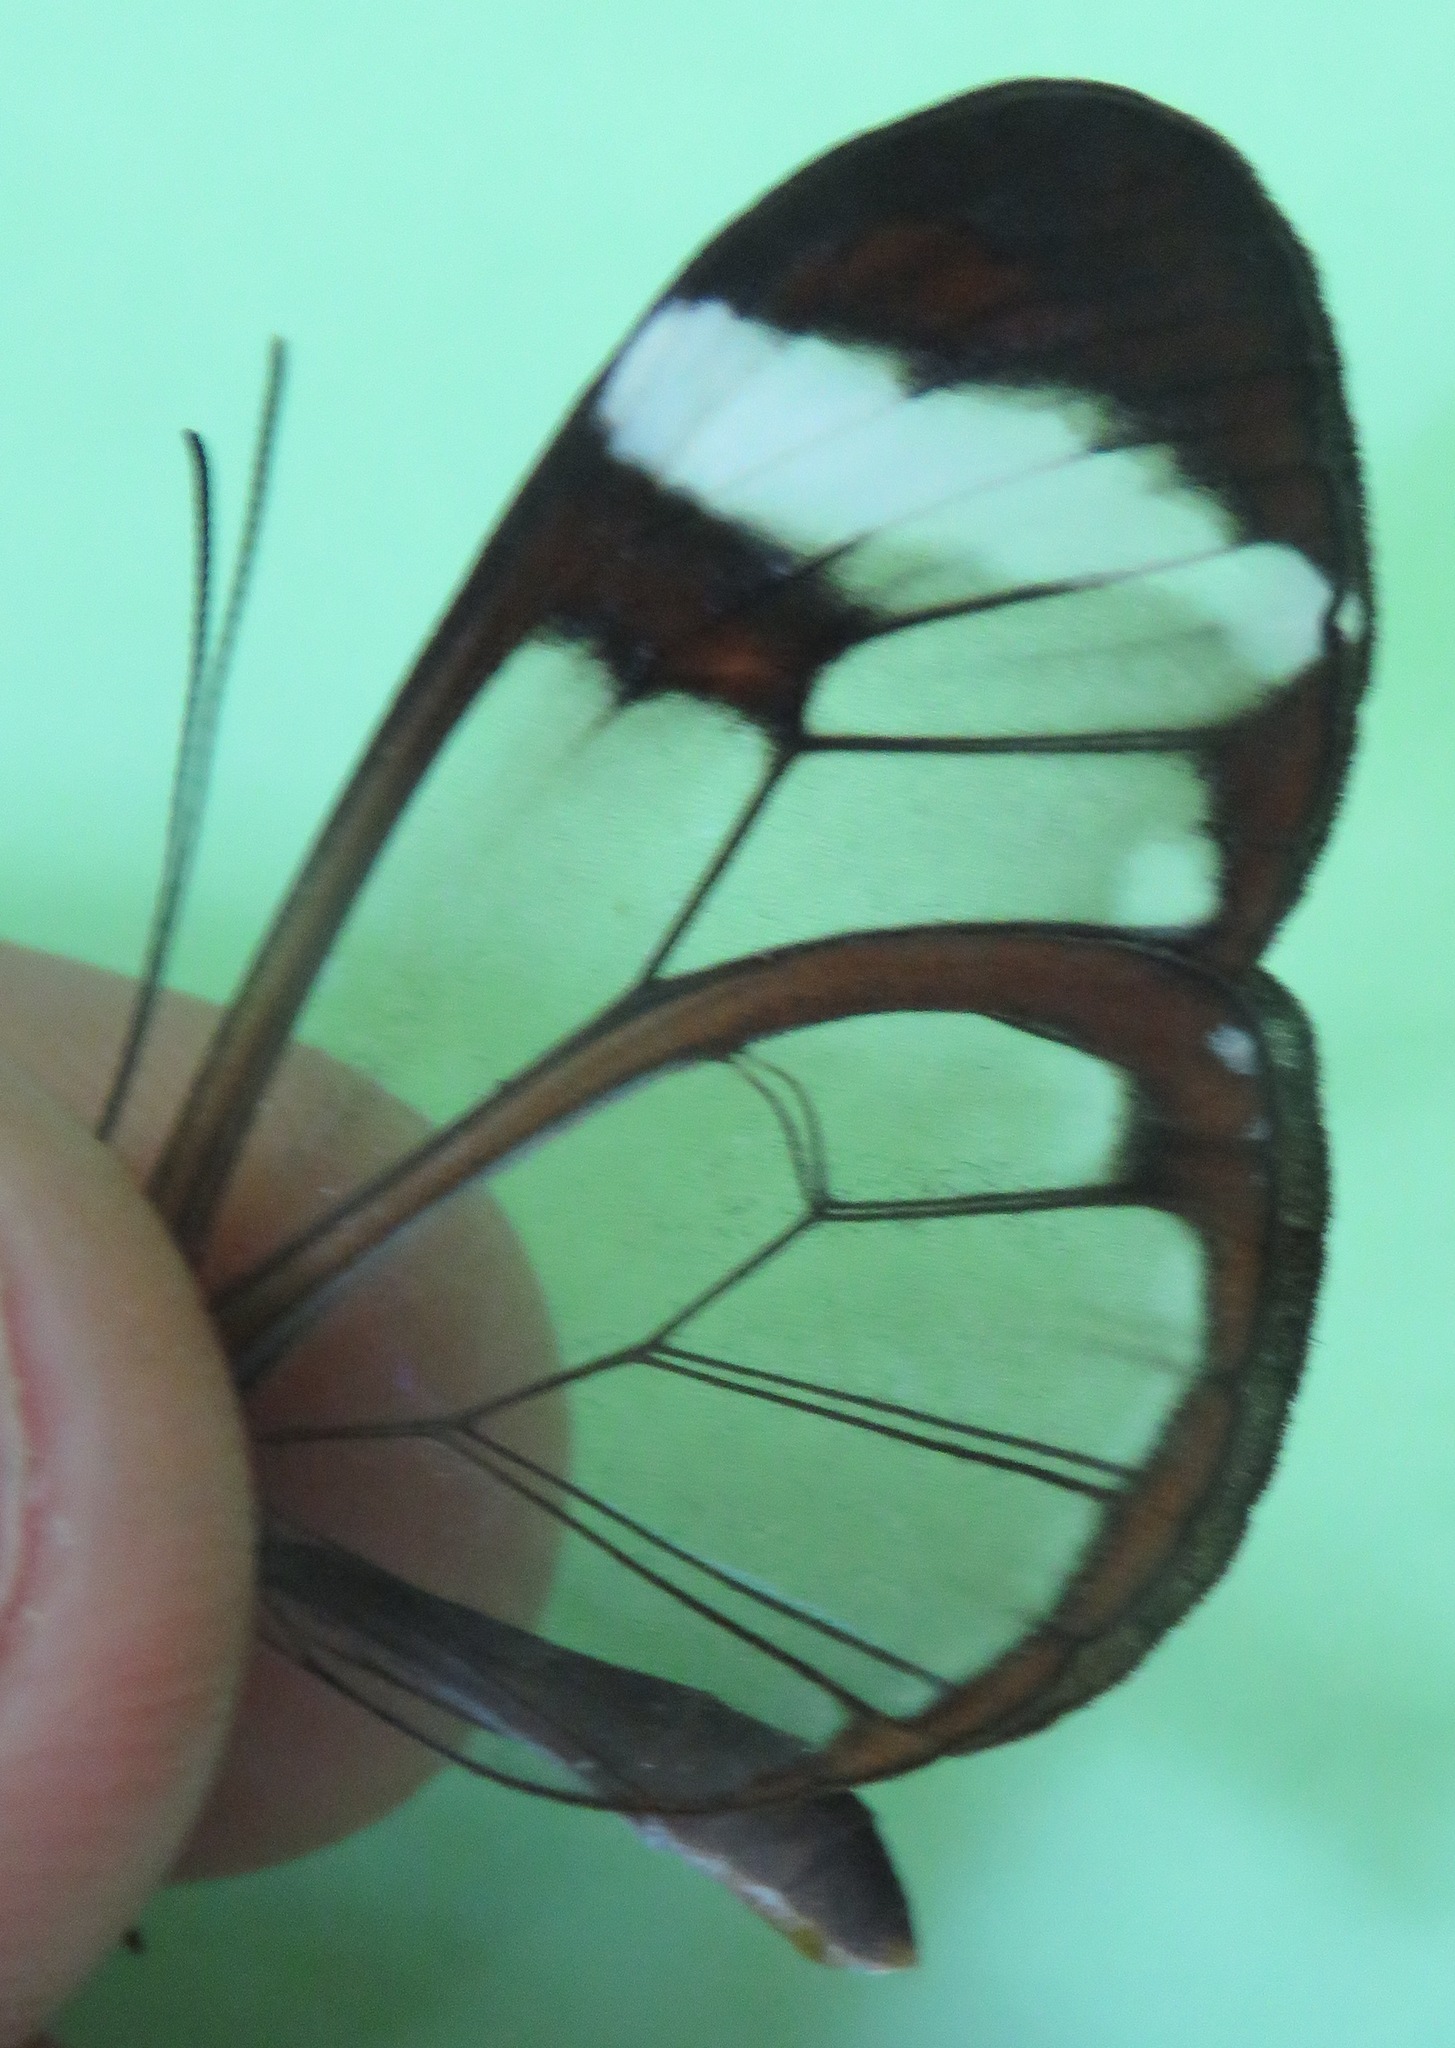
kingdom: Animalia
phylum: Arthropoda
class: Insecta
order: Lepidoptera
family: Nymphalidae
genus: Greta
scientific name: Greta morgane
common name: Thick-tipped greta
